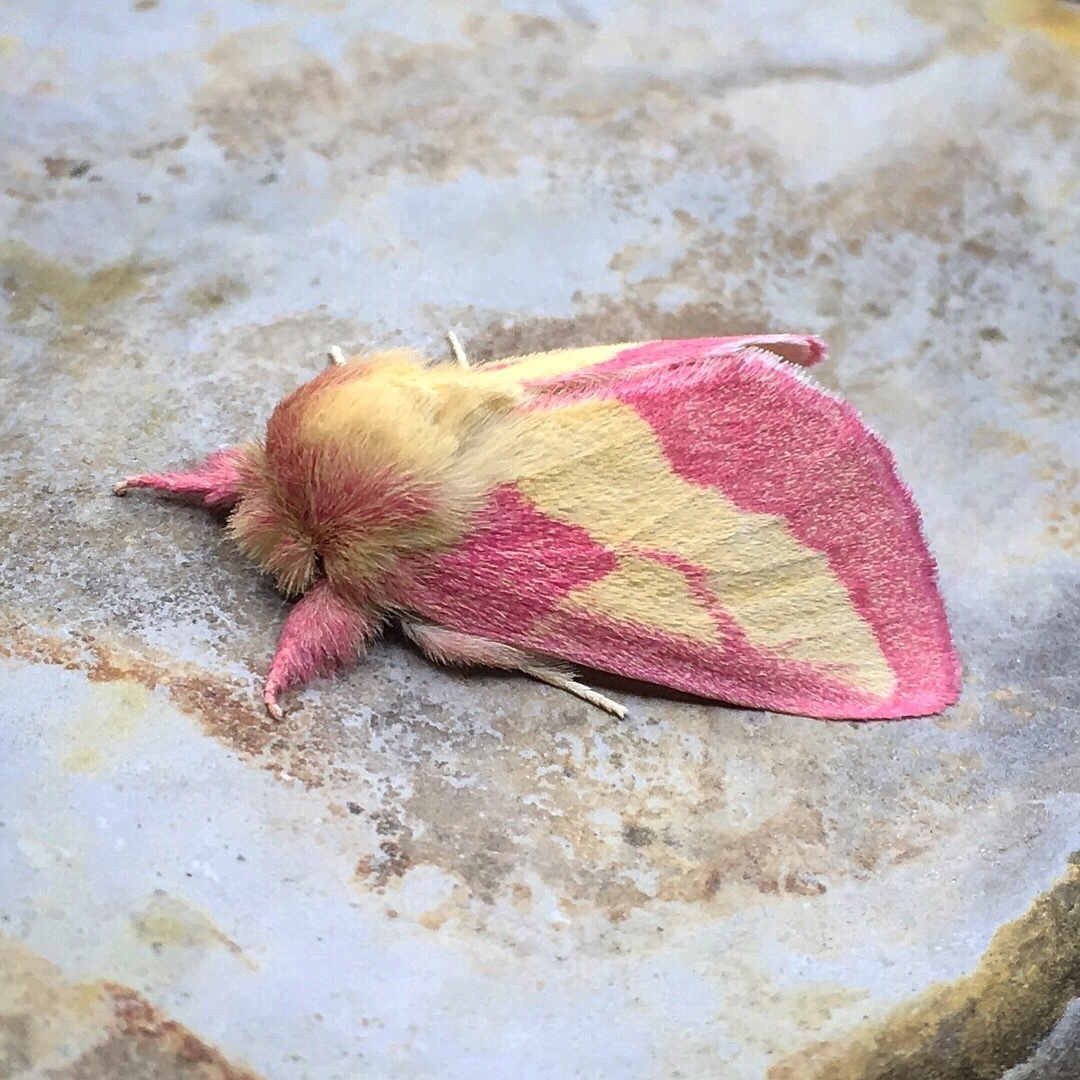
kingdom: Animalia
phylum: Arthropoda
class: Insecta
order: Lepidoptera
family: Notodontidae
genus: Hyparpax
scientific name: Hyparpax aurora
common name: Pink prominent
